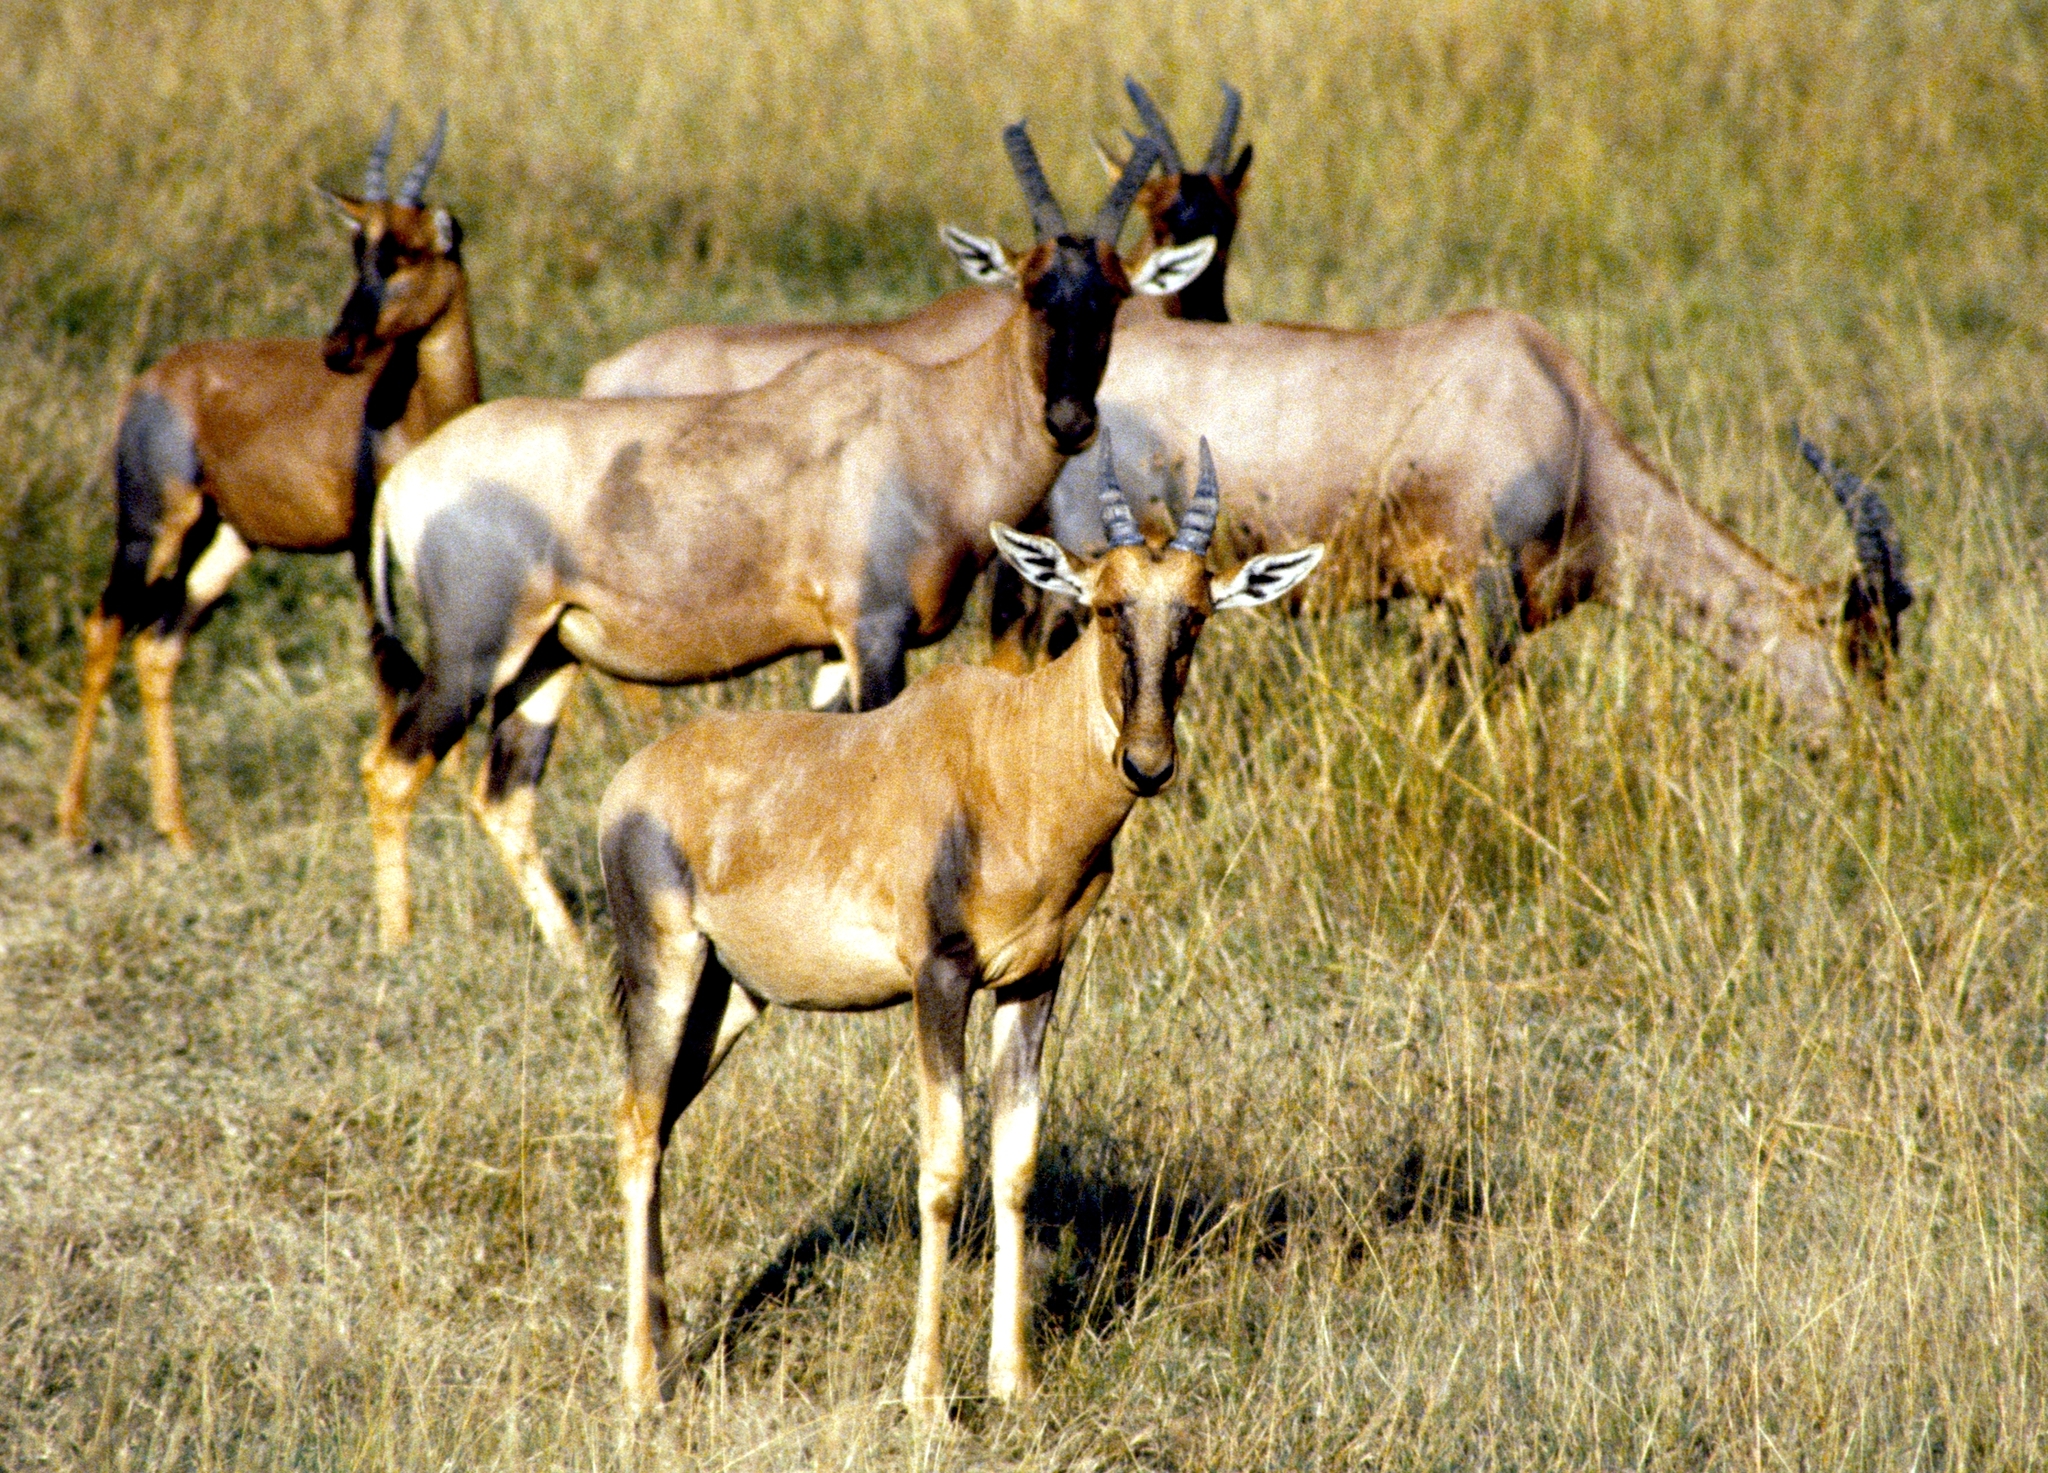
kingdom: Animalia
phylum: Chordata
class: Mammalia
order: Artiodactyla
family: Bovidae
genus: Damaliscus
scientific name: Damaliscus korrigum
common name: Topi
